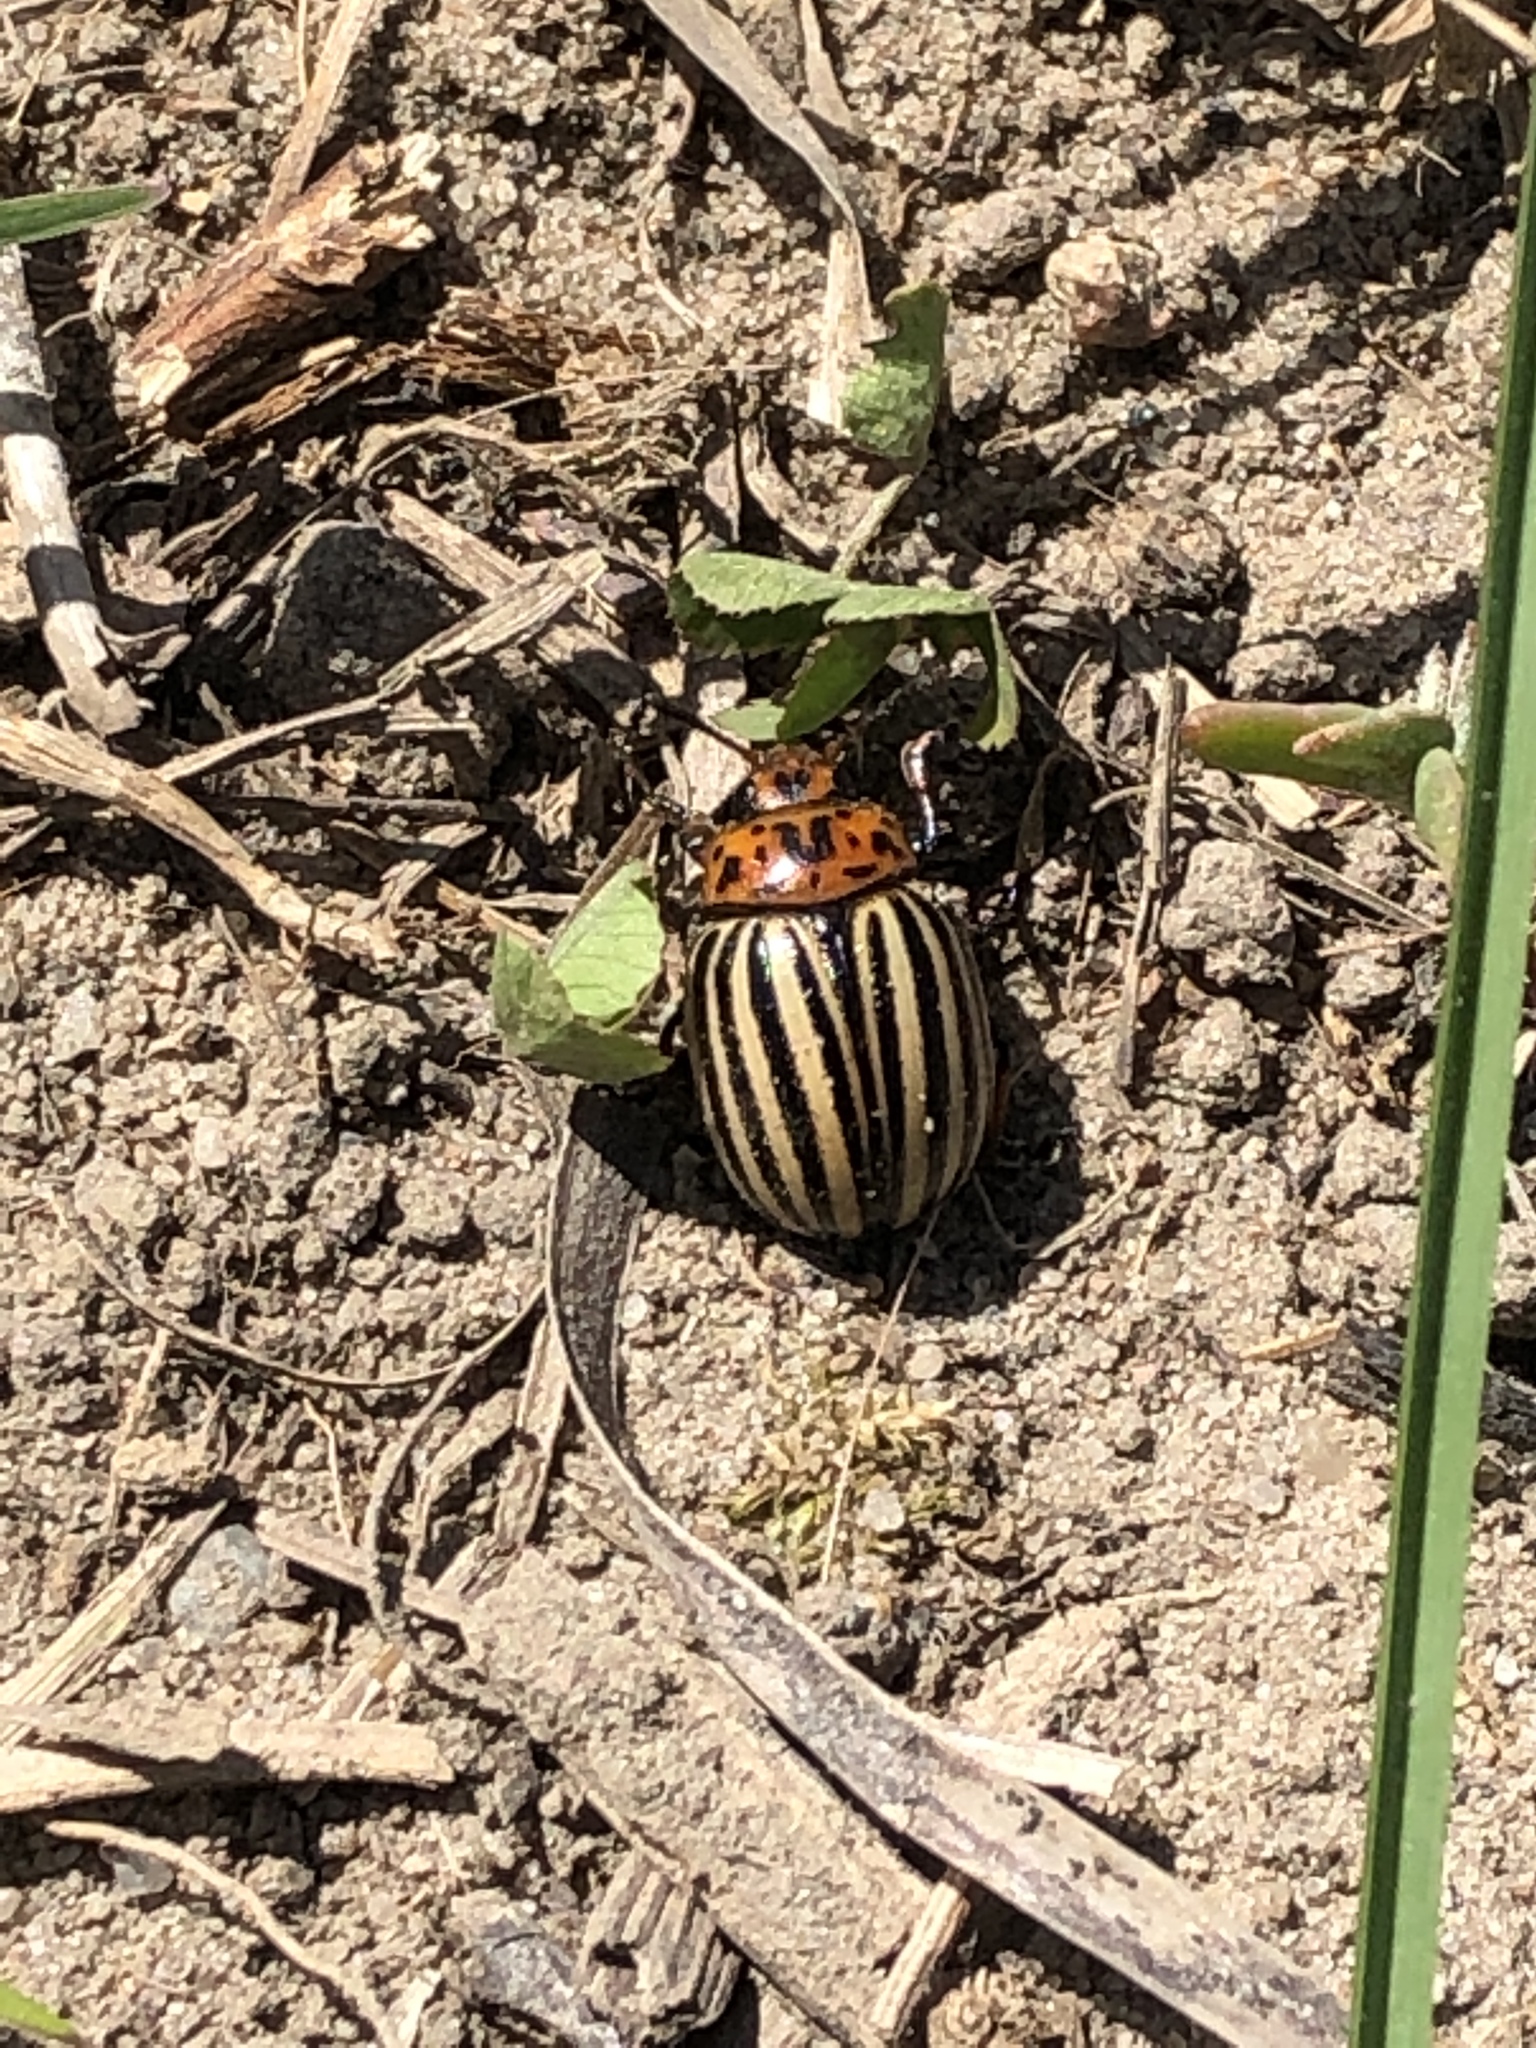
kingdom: Animalia
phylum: Arthropoda
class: Insecta
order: Coleoptera
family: Chrysomelidae
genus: Leptinotarsa
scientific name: Leptinotarsa decemlineata
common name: Colorado potato beetle
